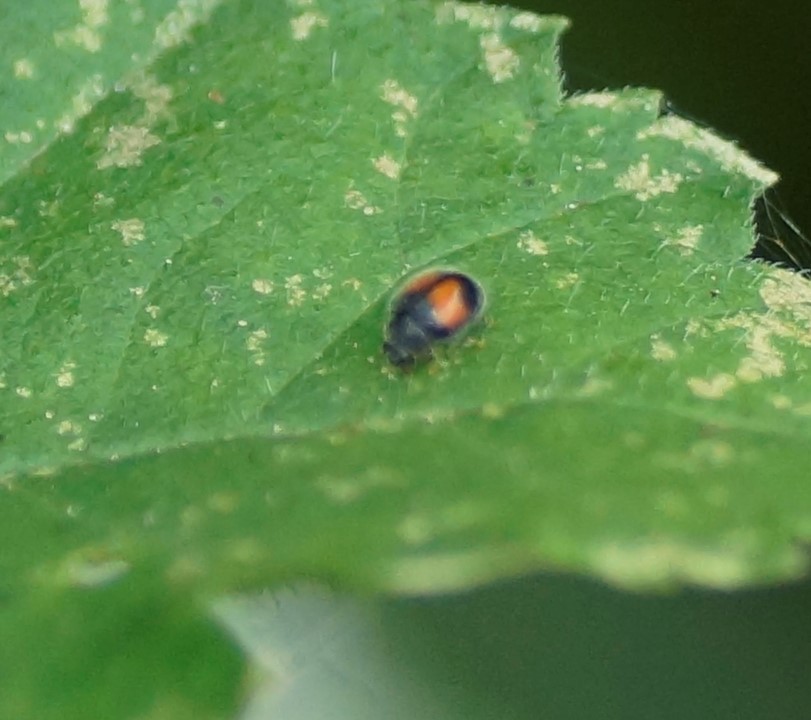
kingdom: Animalia
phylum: Arthropoda
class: Insecta
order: Coleoptera
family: Coccinellidae
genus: Scymnus
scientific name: Scymnus notescens
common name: Minute two-spotted ladybird beetle
